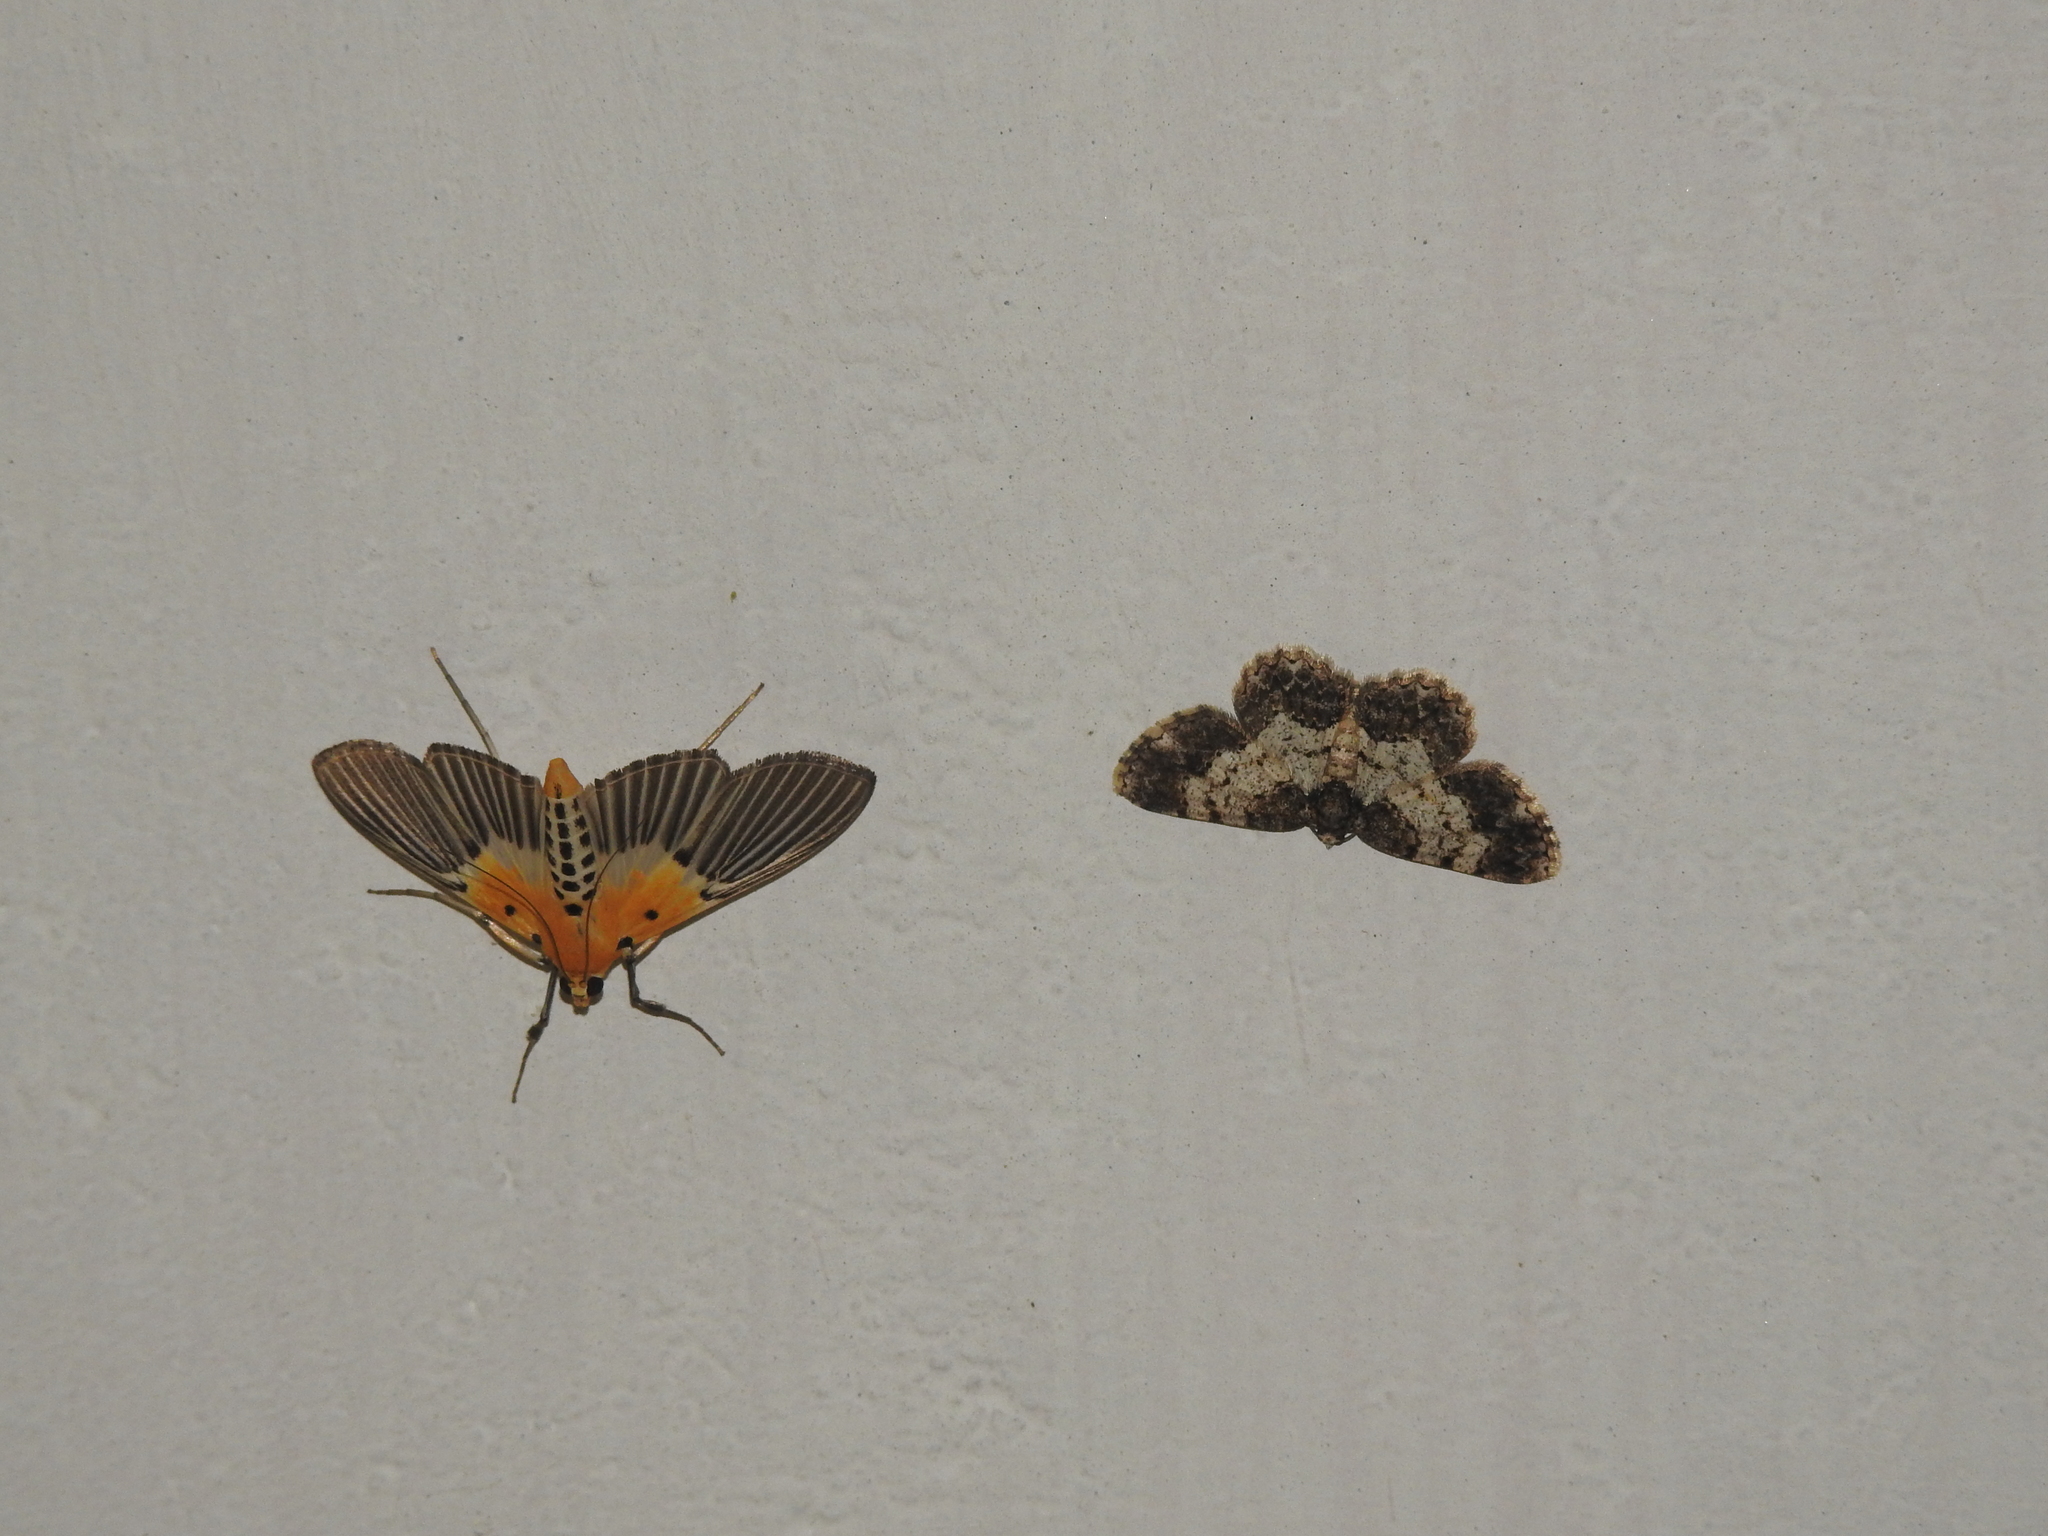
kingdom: Animalia
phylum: Arthropoda
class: Insecta
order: Lepidoptera
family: Crambidae
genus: Nevrina
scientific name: Nevrina procopia
